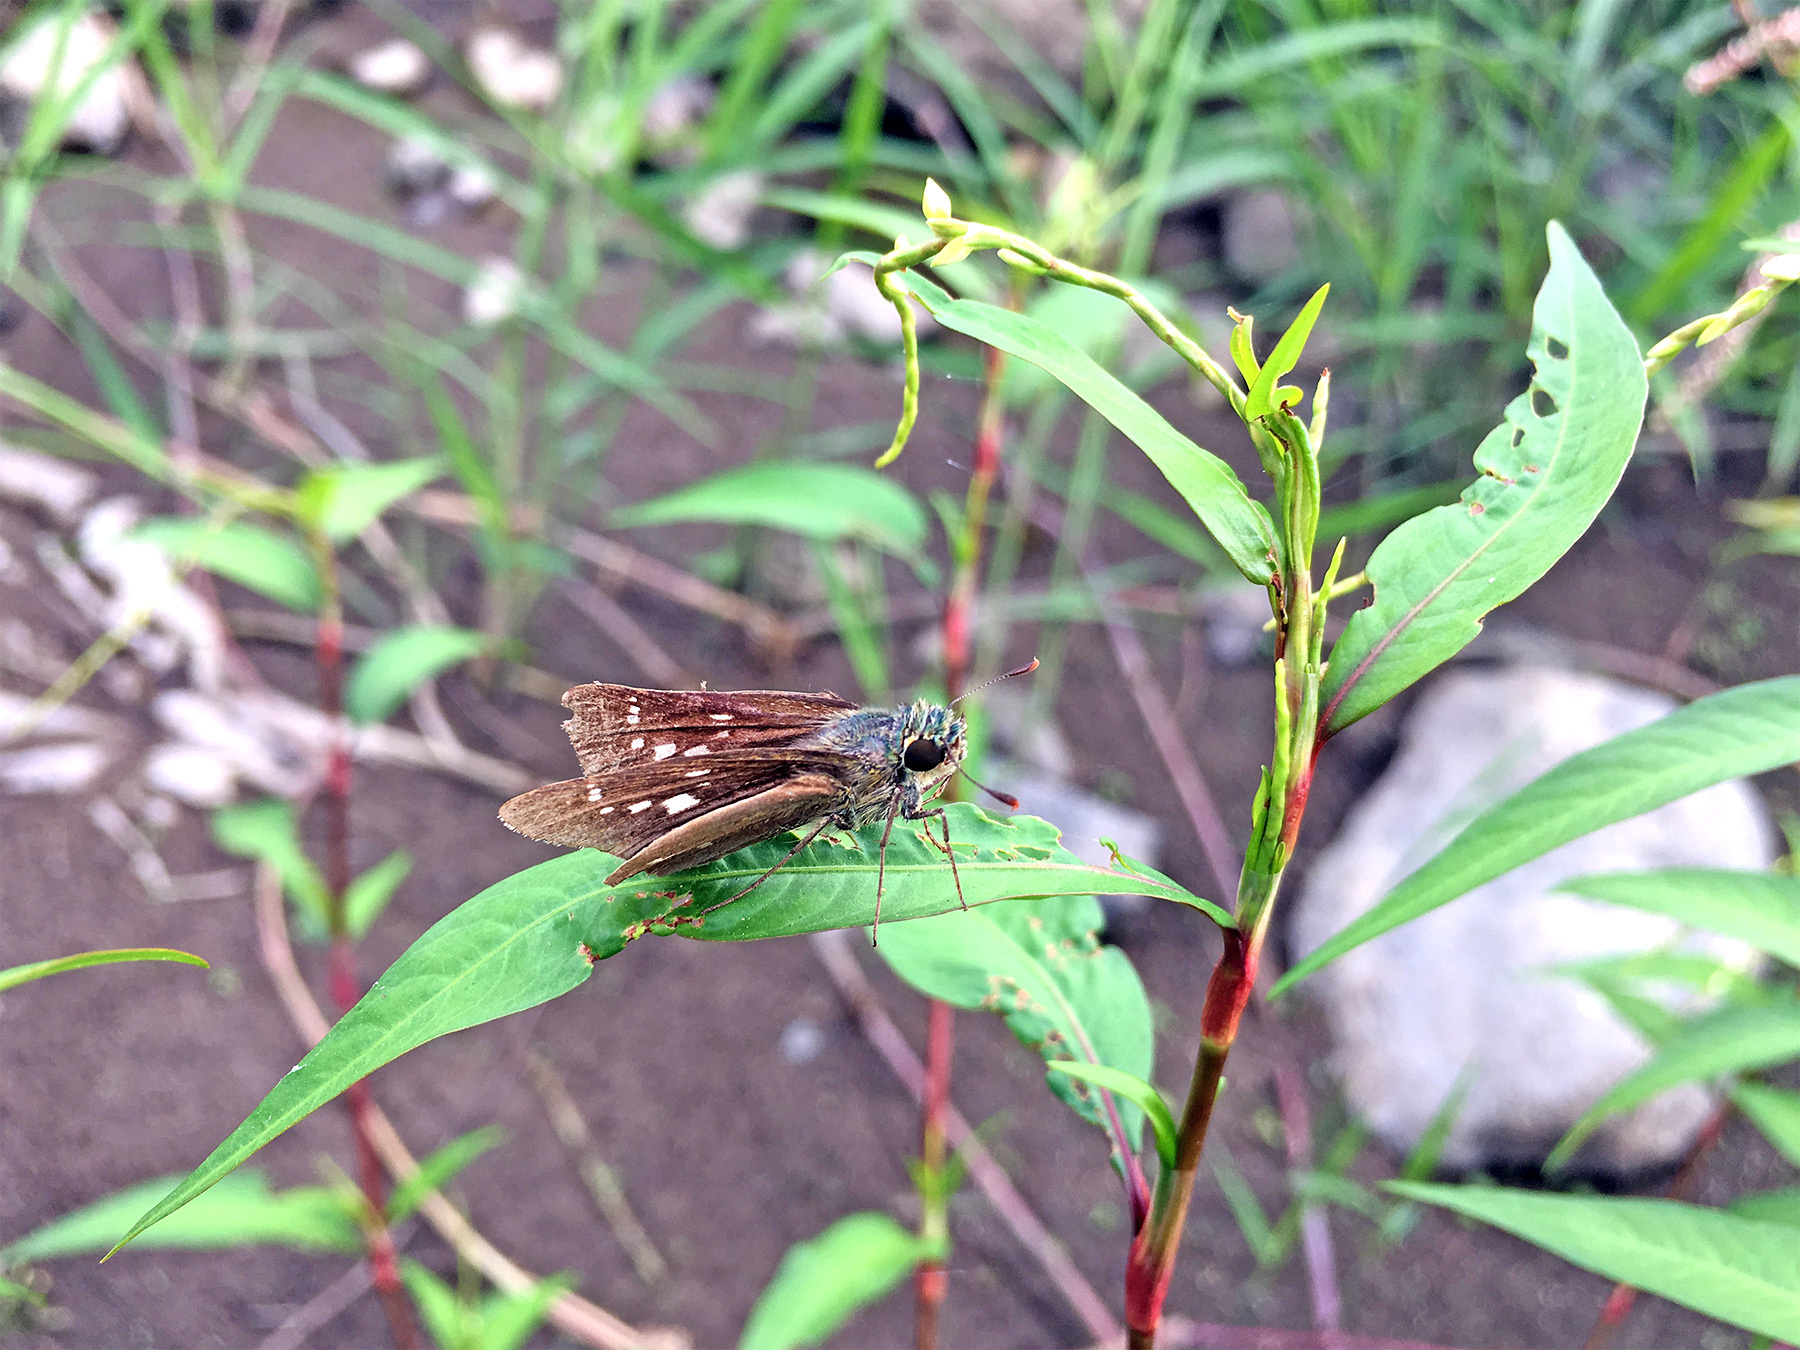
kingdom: Animalia
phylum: Arthropoda
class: Insecta
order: Lepidoptera
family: Hesperiidae
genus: Parnara
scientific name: Parnara guttatus
